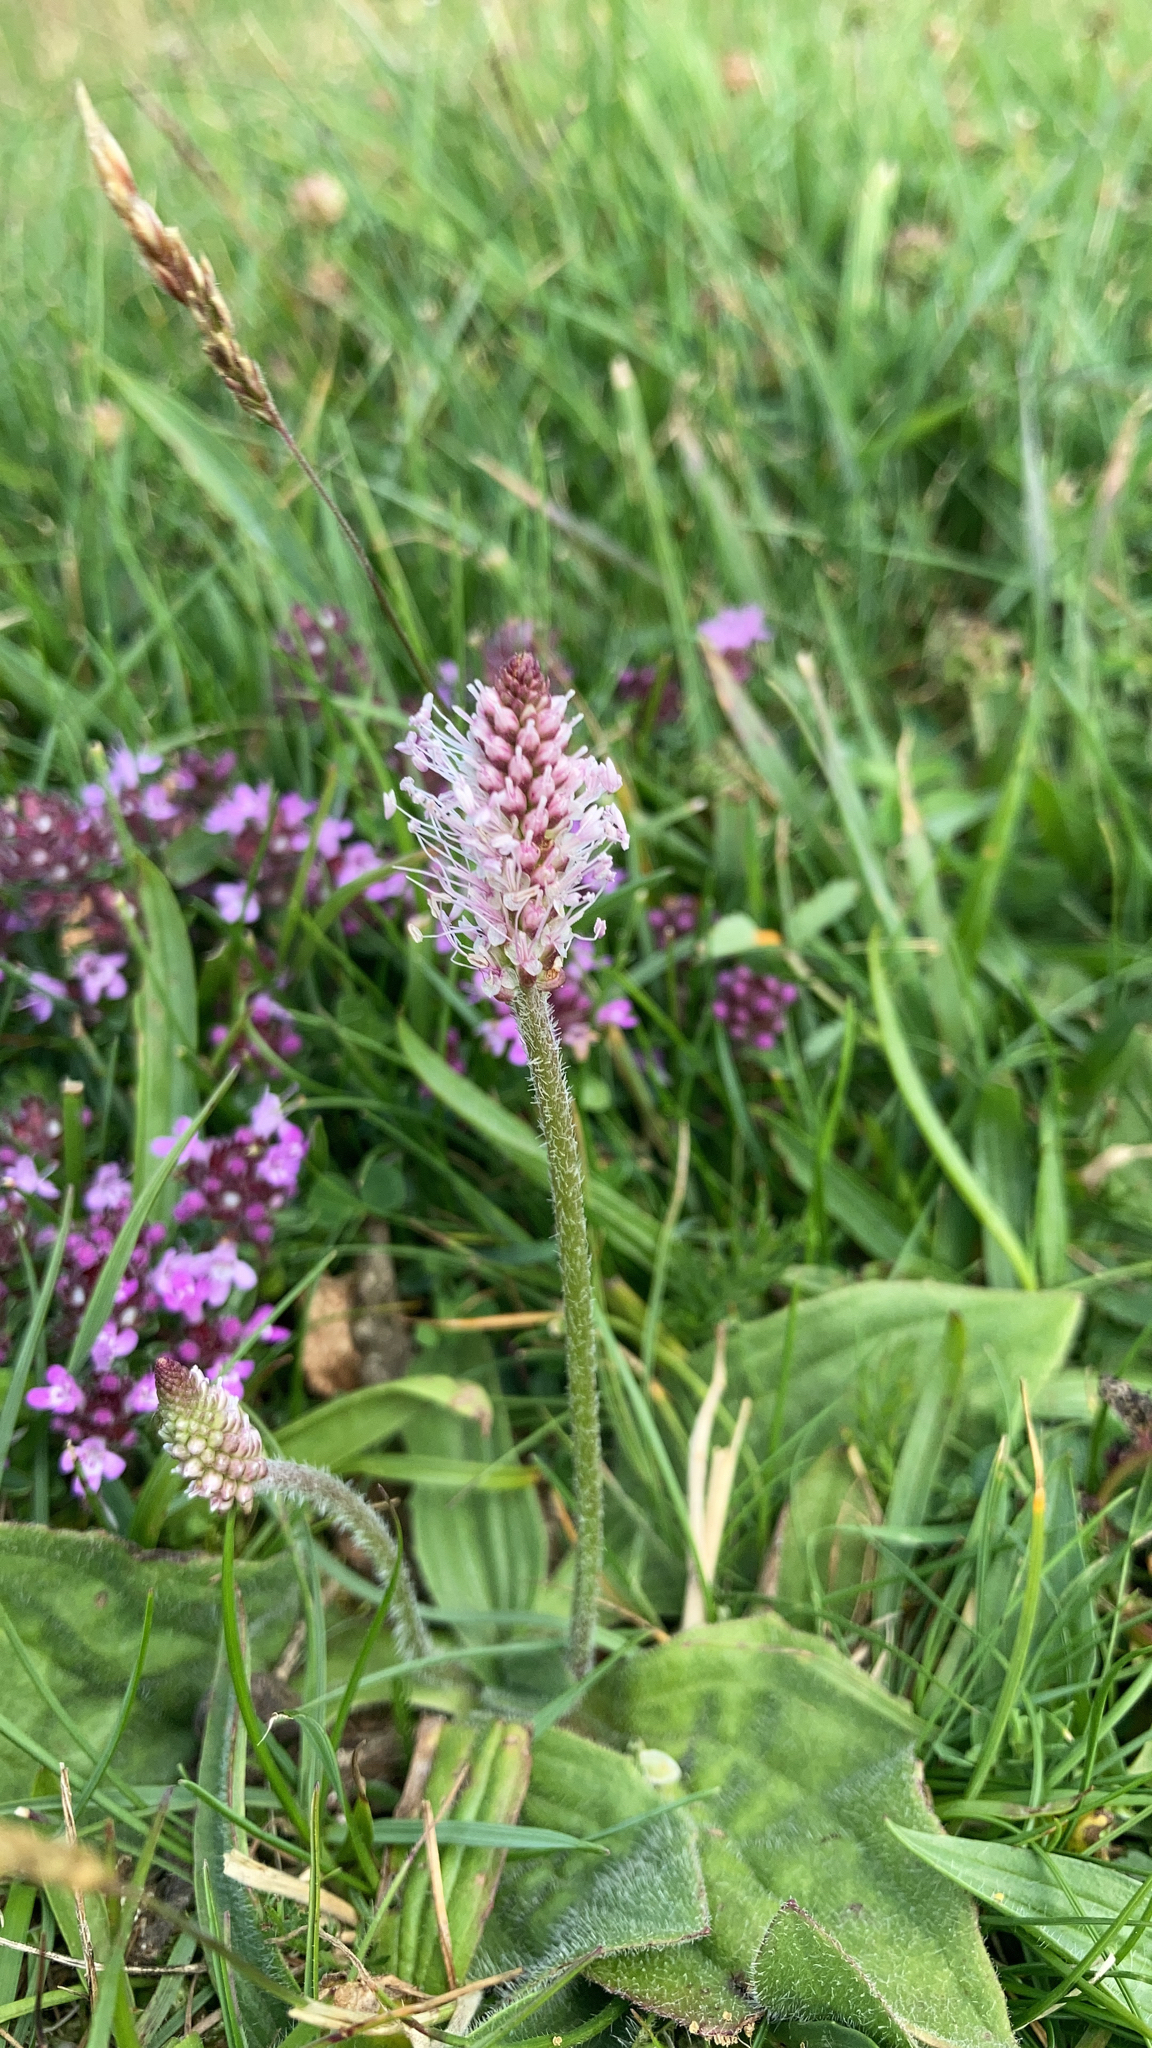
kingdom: Plantae
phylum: Tracheophyta
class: Magnoliopsida
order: Lamiales
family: Plantaginaceae
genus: Plantago
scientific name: Plantago media
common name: Hoary plantain
